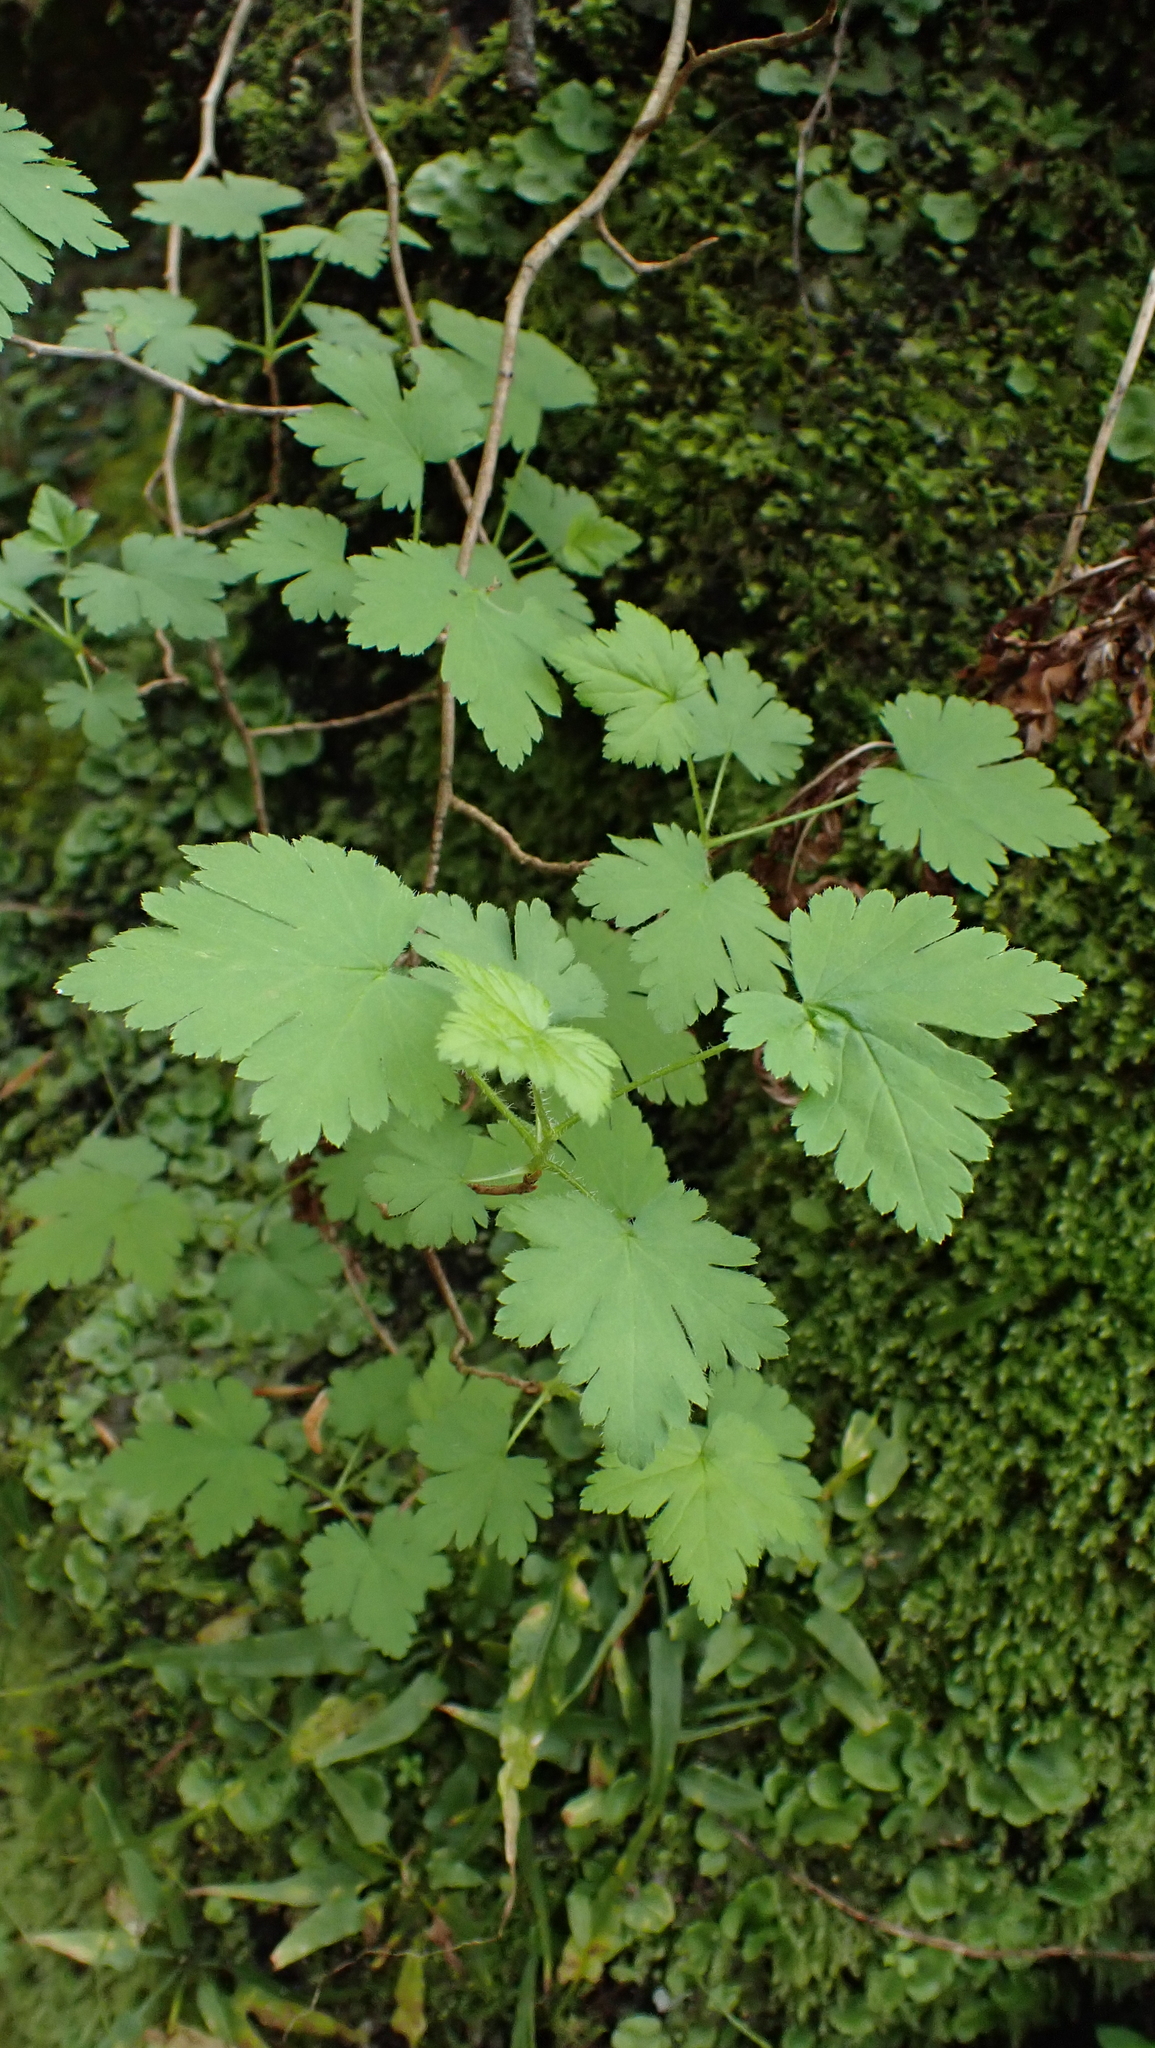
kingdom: Plantae
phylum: Tracheophyta
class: Magnoliopsida
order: Saxifragales
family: Grossulariaceae
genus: Ribes
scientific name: Ribes cynosbati
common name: American gooseberry
